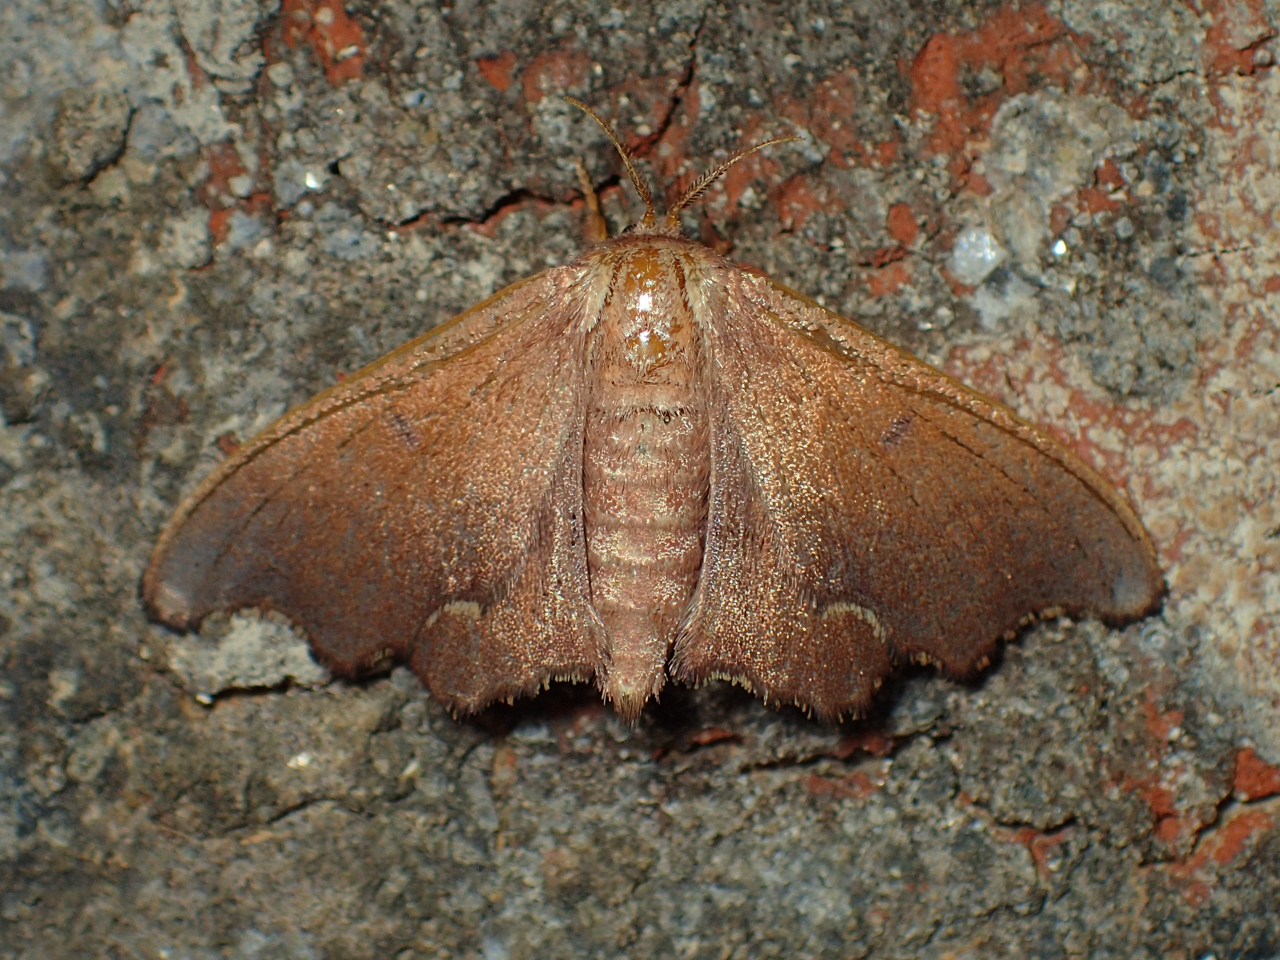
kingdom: Animalia
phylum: Arthropoda
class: Insecta
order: Lepidoptera
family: Mimallonidae
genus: Lacosoma
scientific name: Lacosoma chiridota
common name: Scalloped sack-bearer moth
